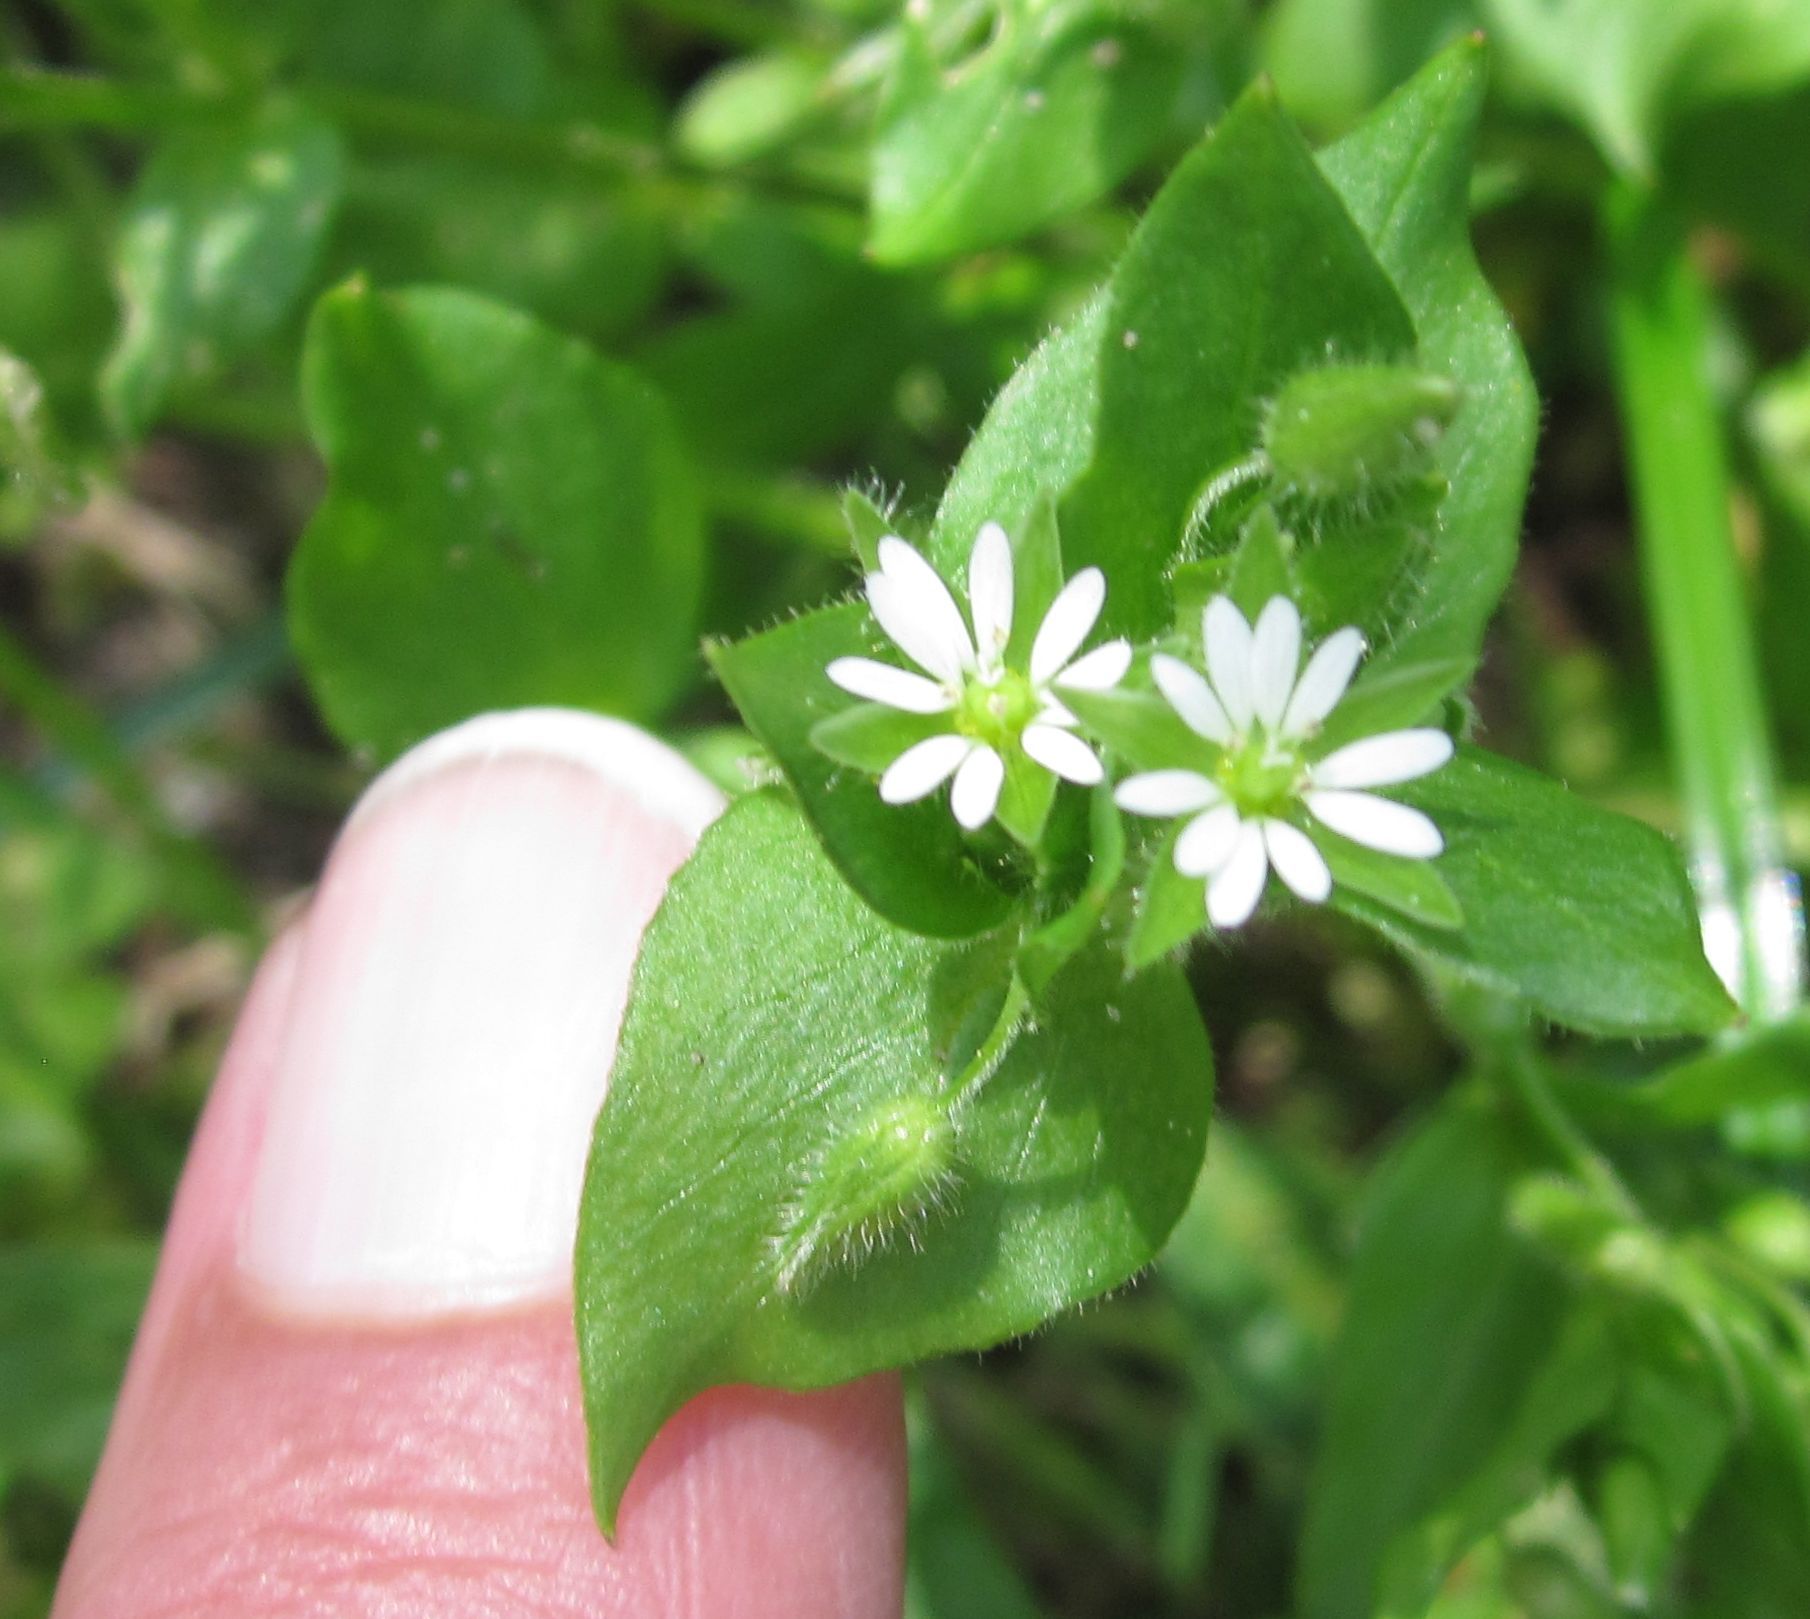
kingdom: Plantae
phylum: Tracheophyta
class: Magnoliopsida
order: Caryophyllales
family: Caryophyllaceae
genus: Stellaria
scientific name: Stellaria media
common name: Common chickweed
